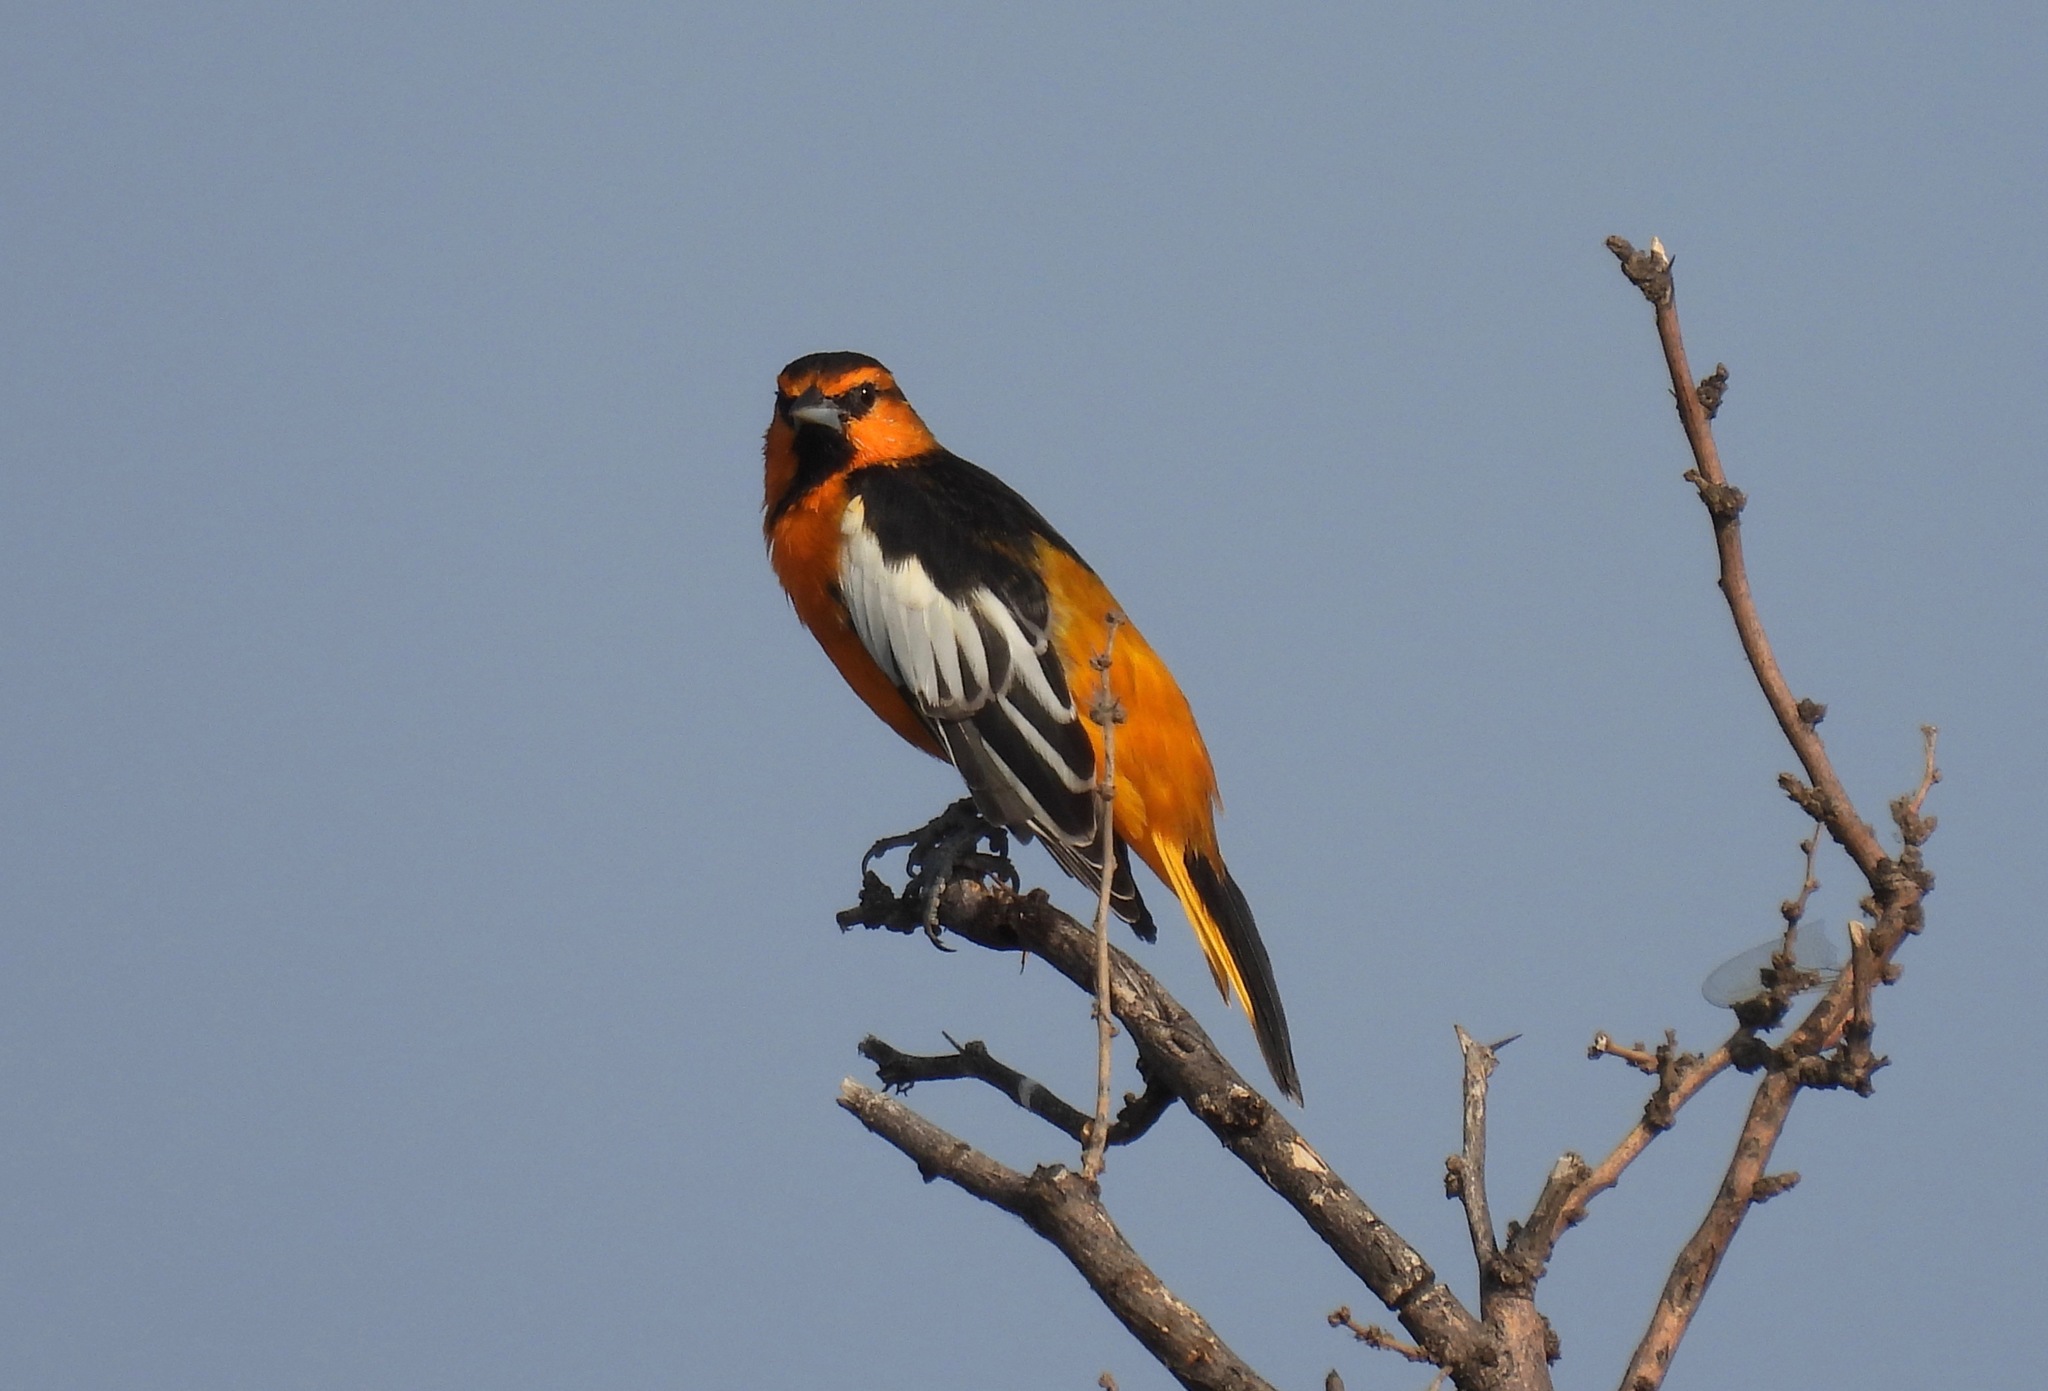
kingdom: Animalia
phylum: Chordata
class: Aves
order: Passeriformes
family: Icteridae
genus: Icterus
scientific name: Icterus bullockii
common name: Bullock's oriole
